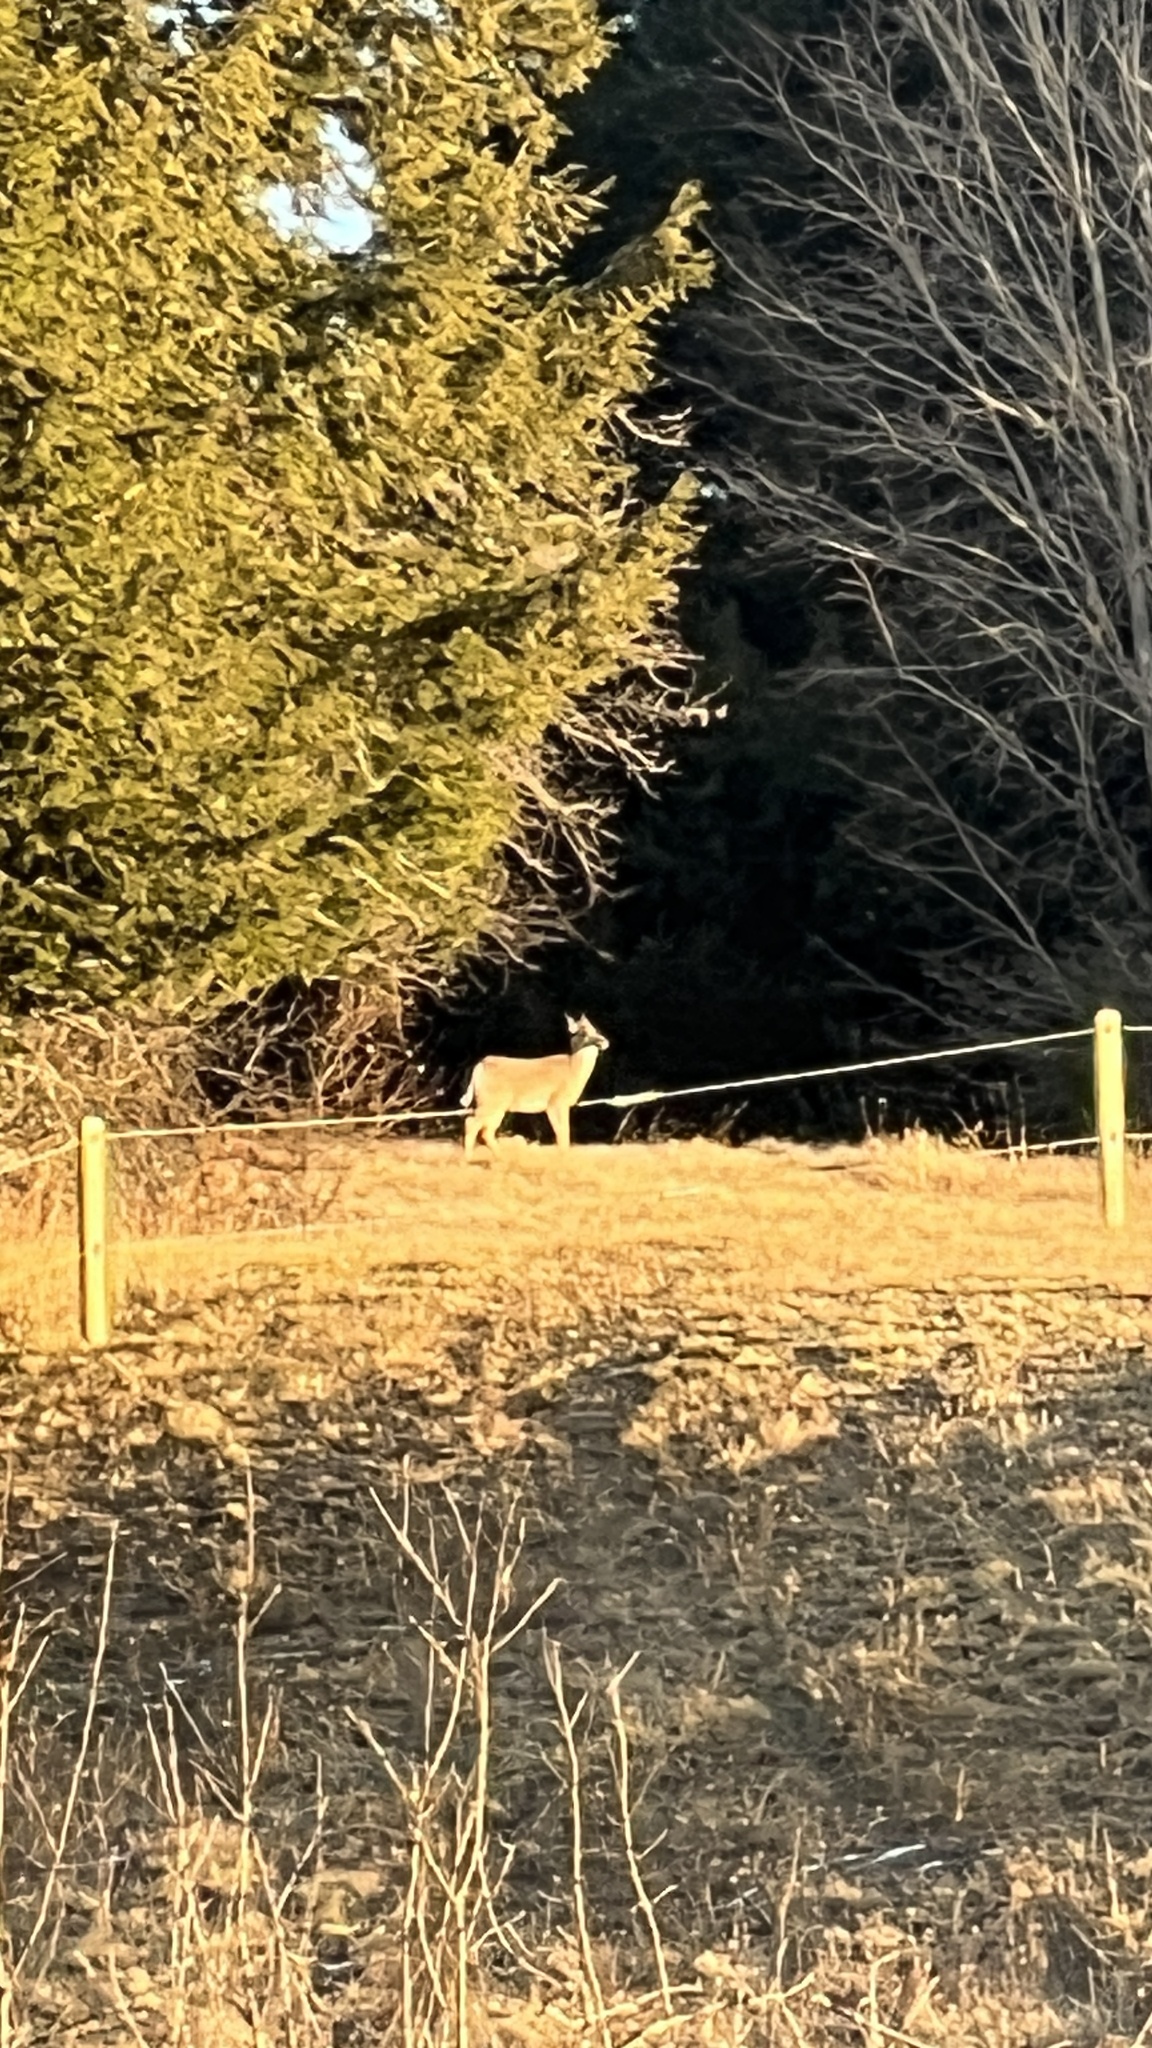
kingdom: Animalia
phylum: Chordata
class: Mammalia
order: Artiodactyla
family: Cervidae
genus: Odocoileus
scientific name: Odocoileus virginianus
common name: White-tailed deer
